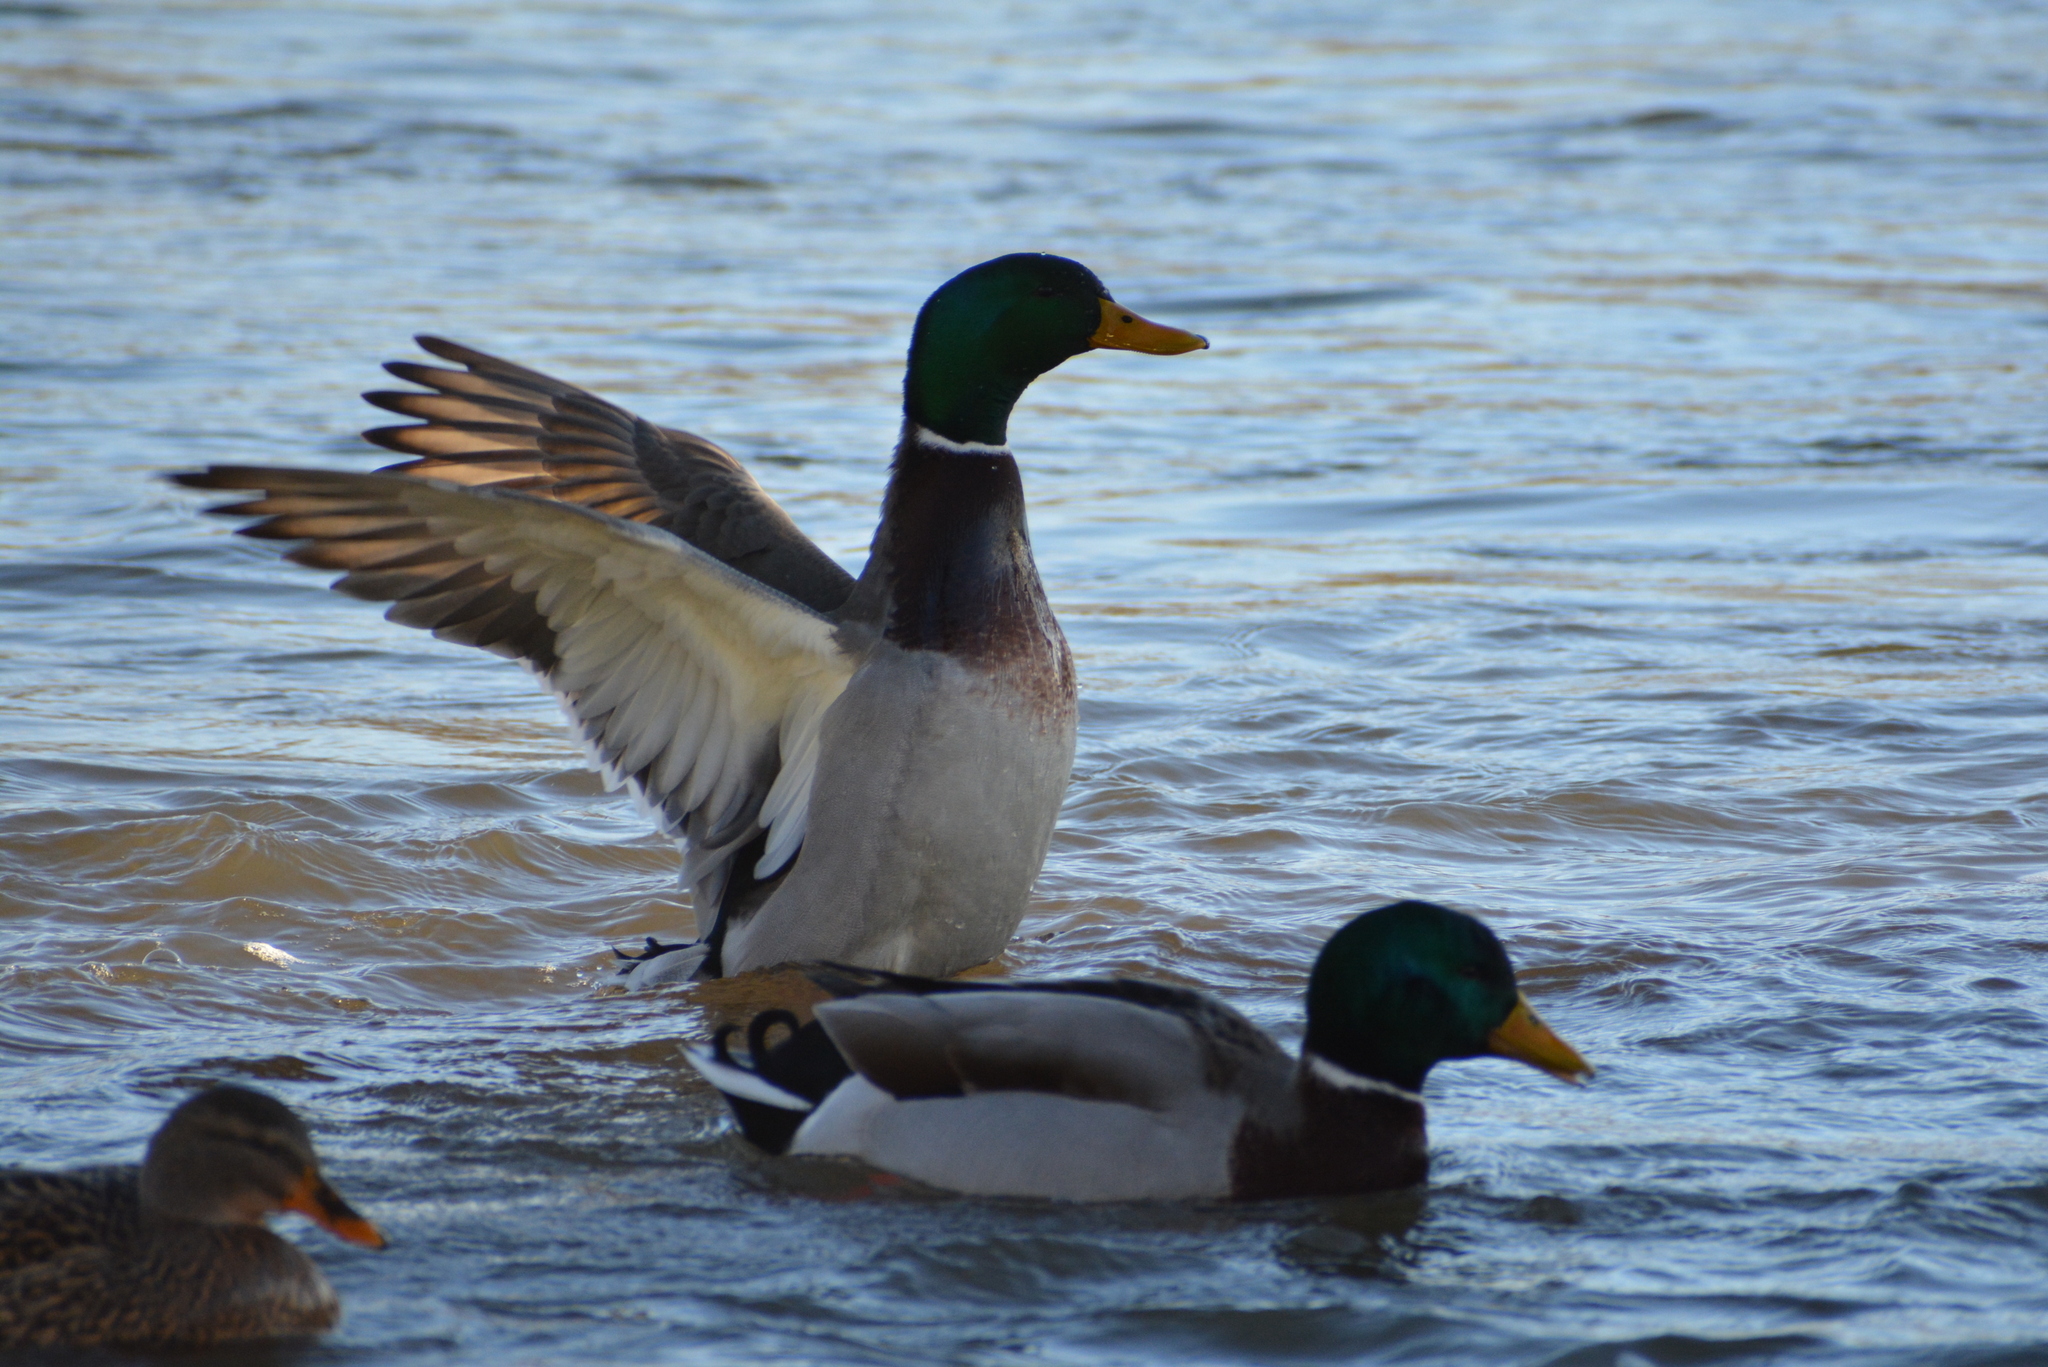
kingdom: Animalia
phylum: Chordata
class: Aves
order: Anseriformes
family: Anatidae
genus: Anas
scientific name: Anas platyrhynchos
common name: Mallard
